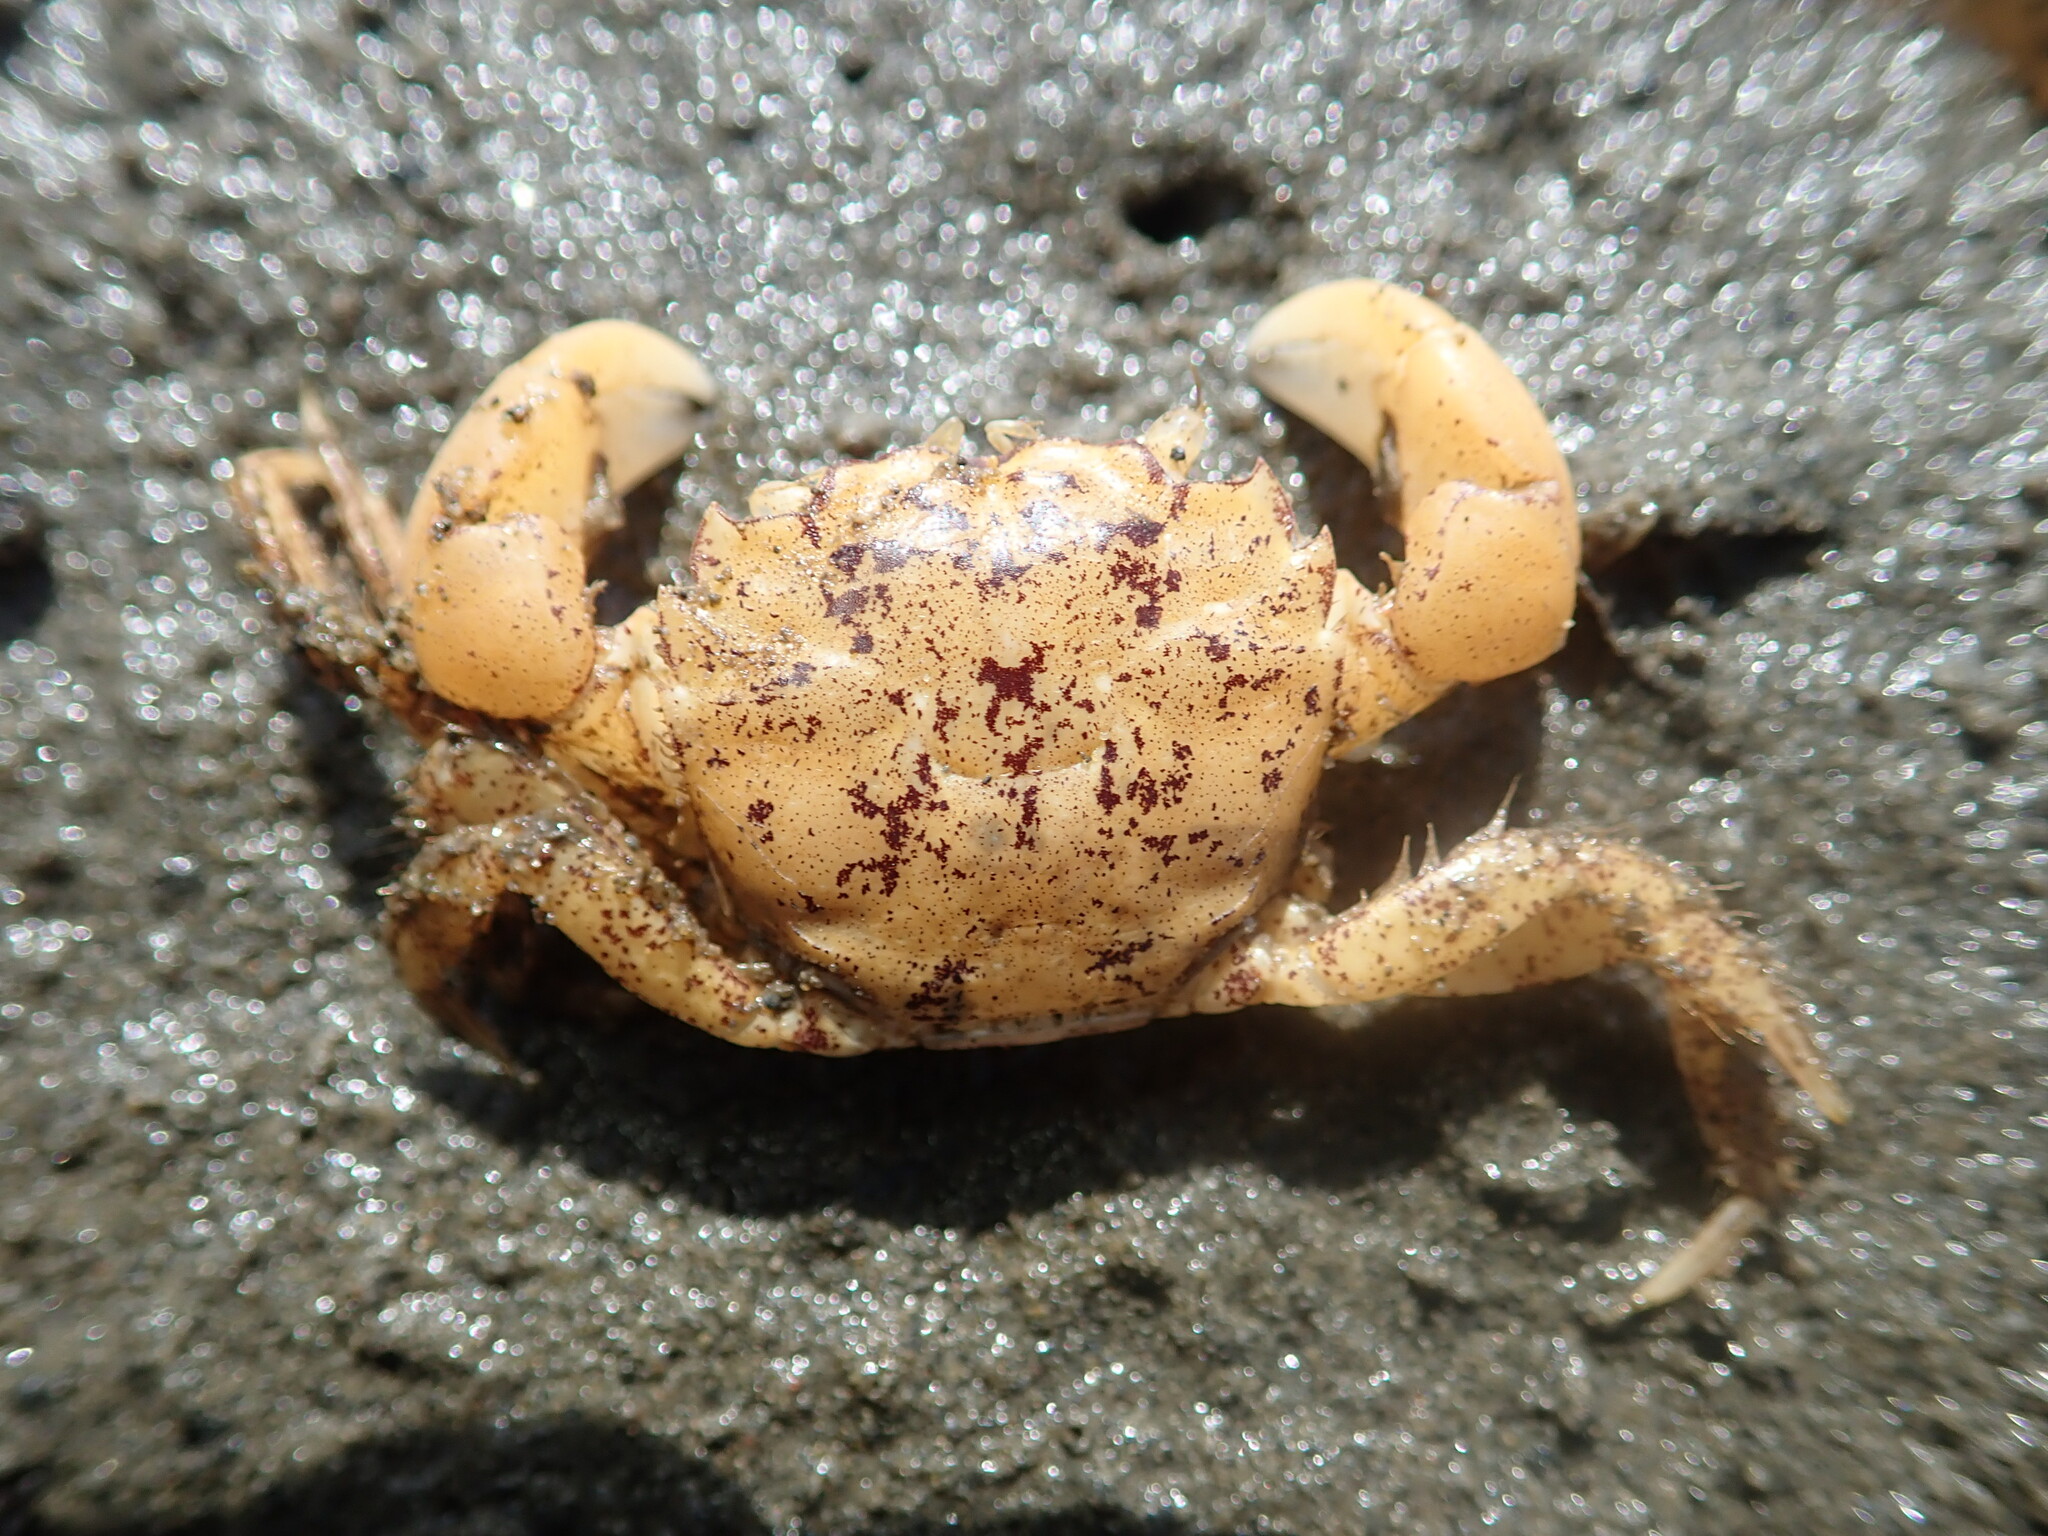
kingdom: Animalia
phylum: Arthropoda
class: Malacostraca
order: Decapoda
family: Varunidae
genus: Hemigrapsus
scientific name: Hemigrapsus oregonensis
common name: Yellow shore crab
